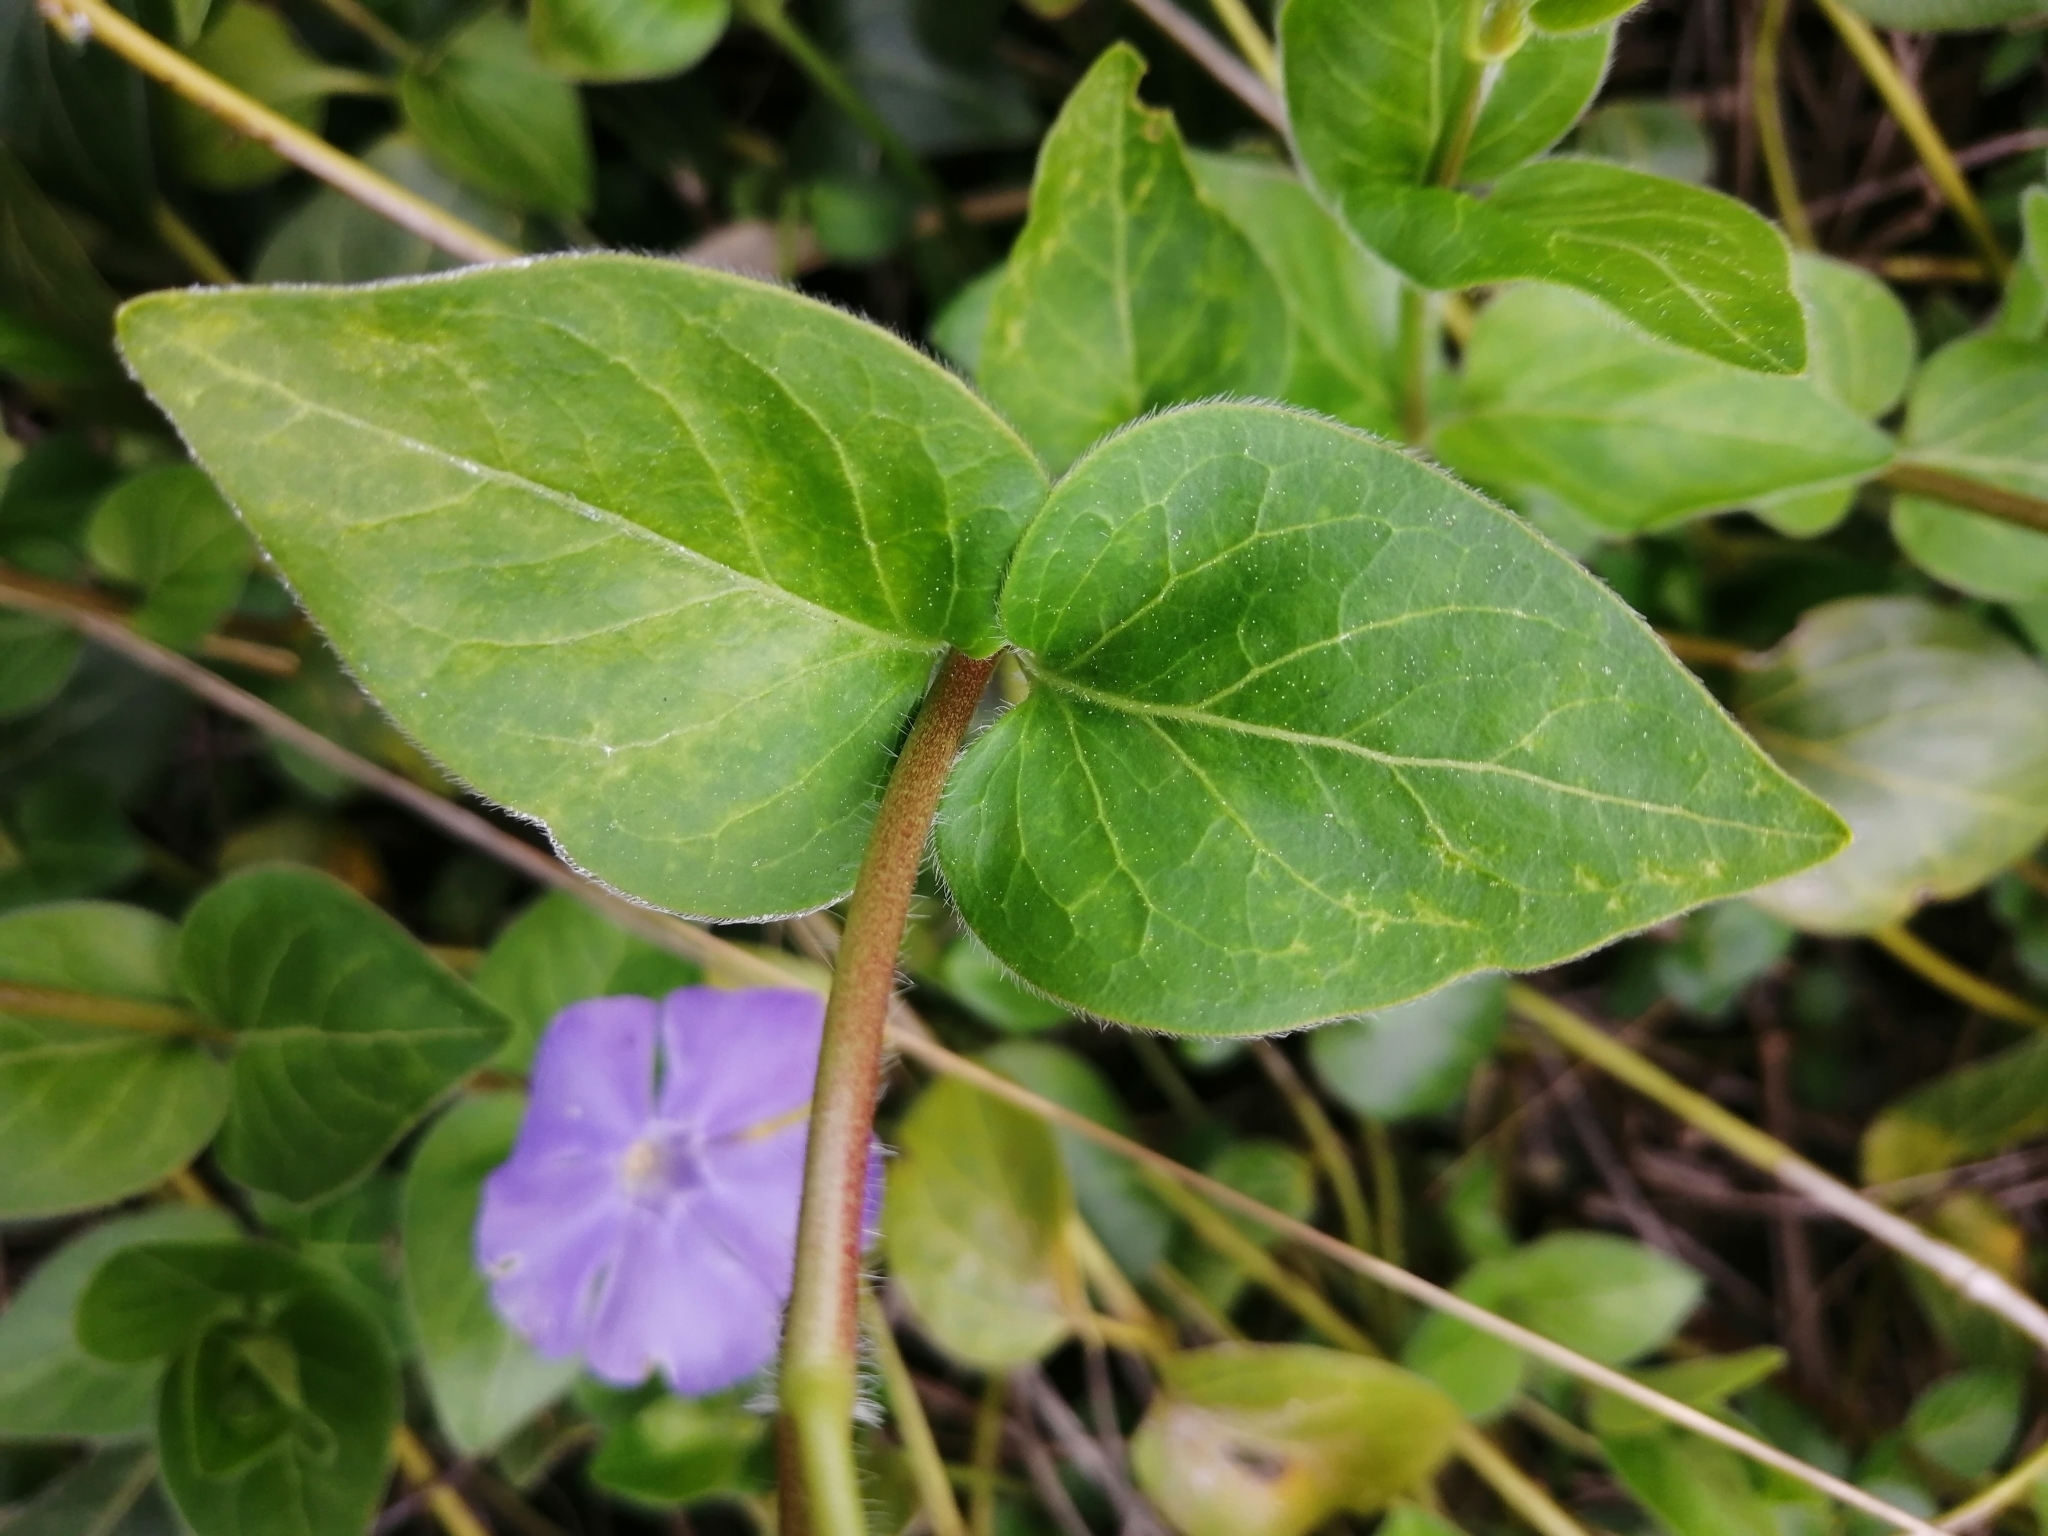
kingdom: Plantae
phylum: Tracheophyta
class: Magnoliopsida
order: Gentianales
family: Apocynaceae
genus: Vinca
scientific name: Vinca major
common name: Greater periwinkle
